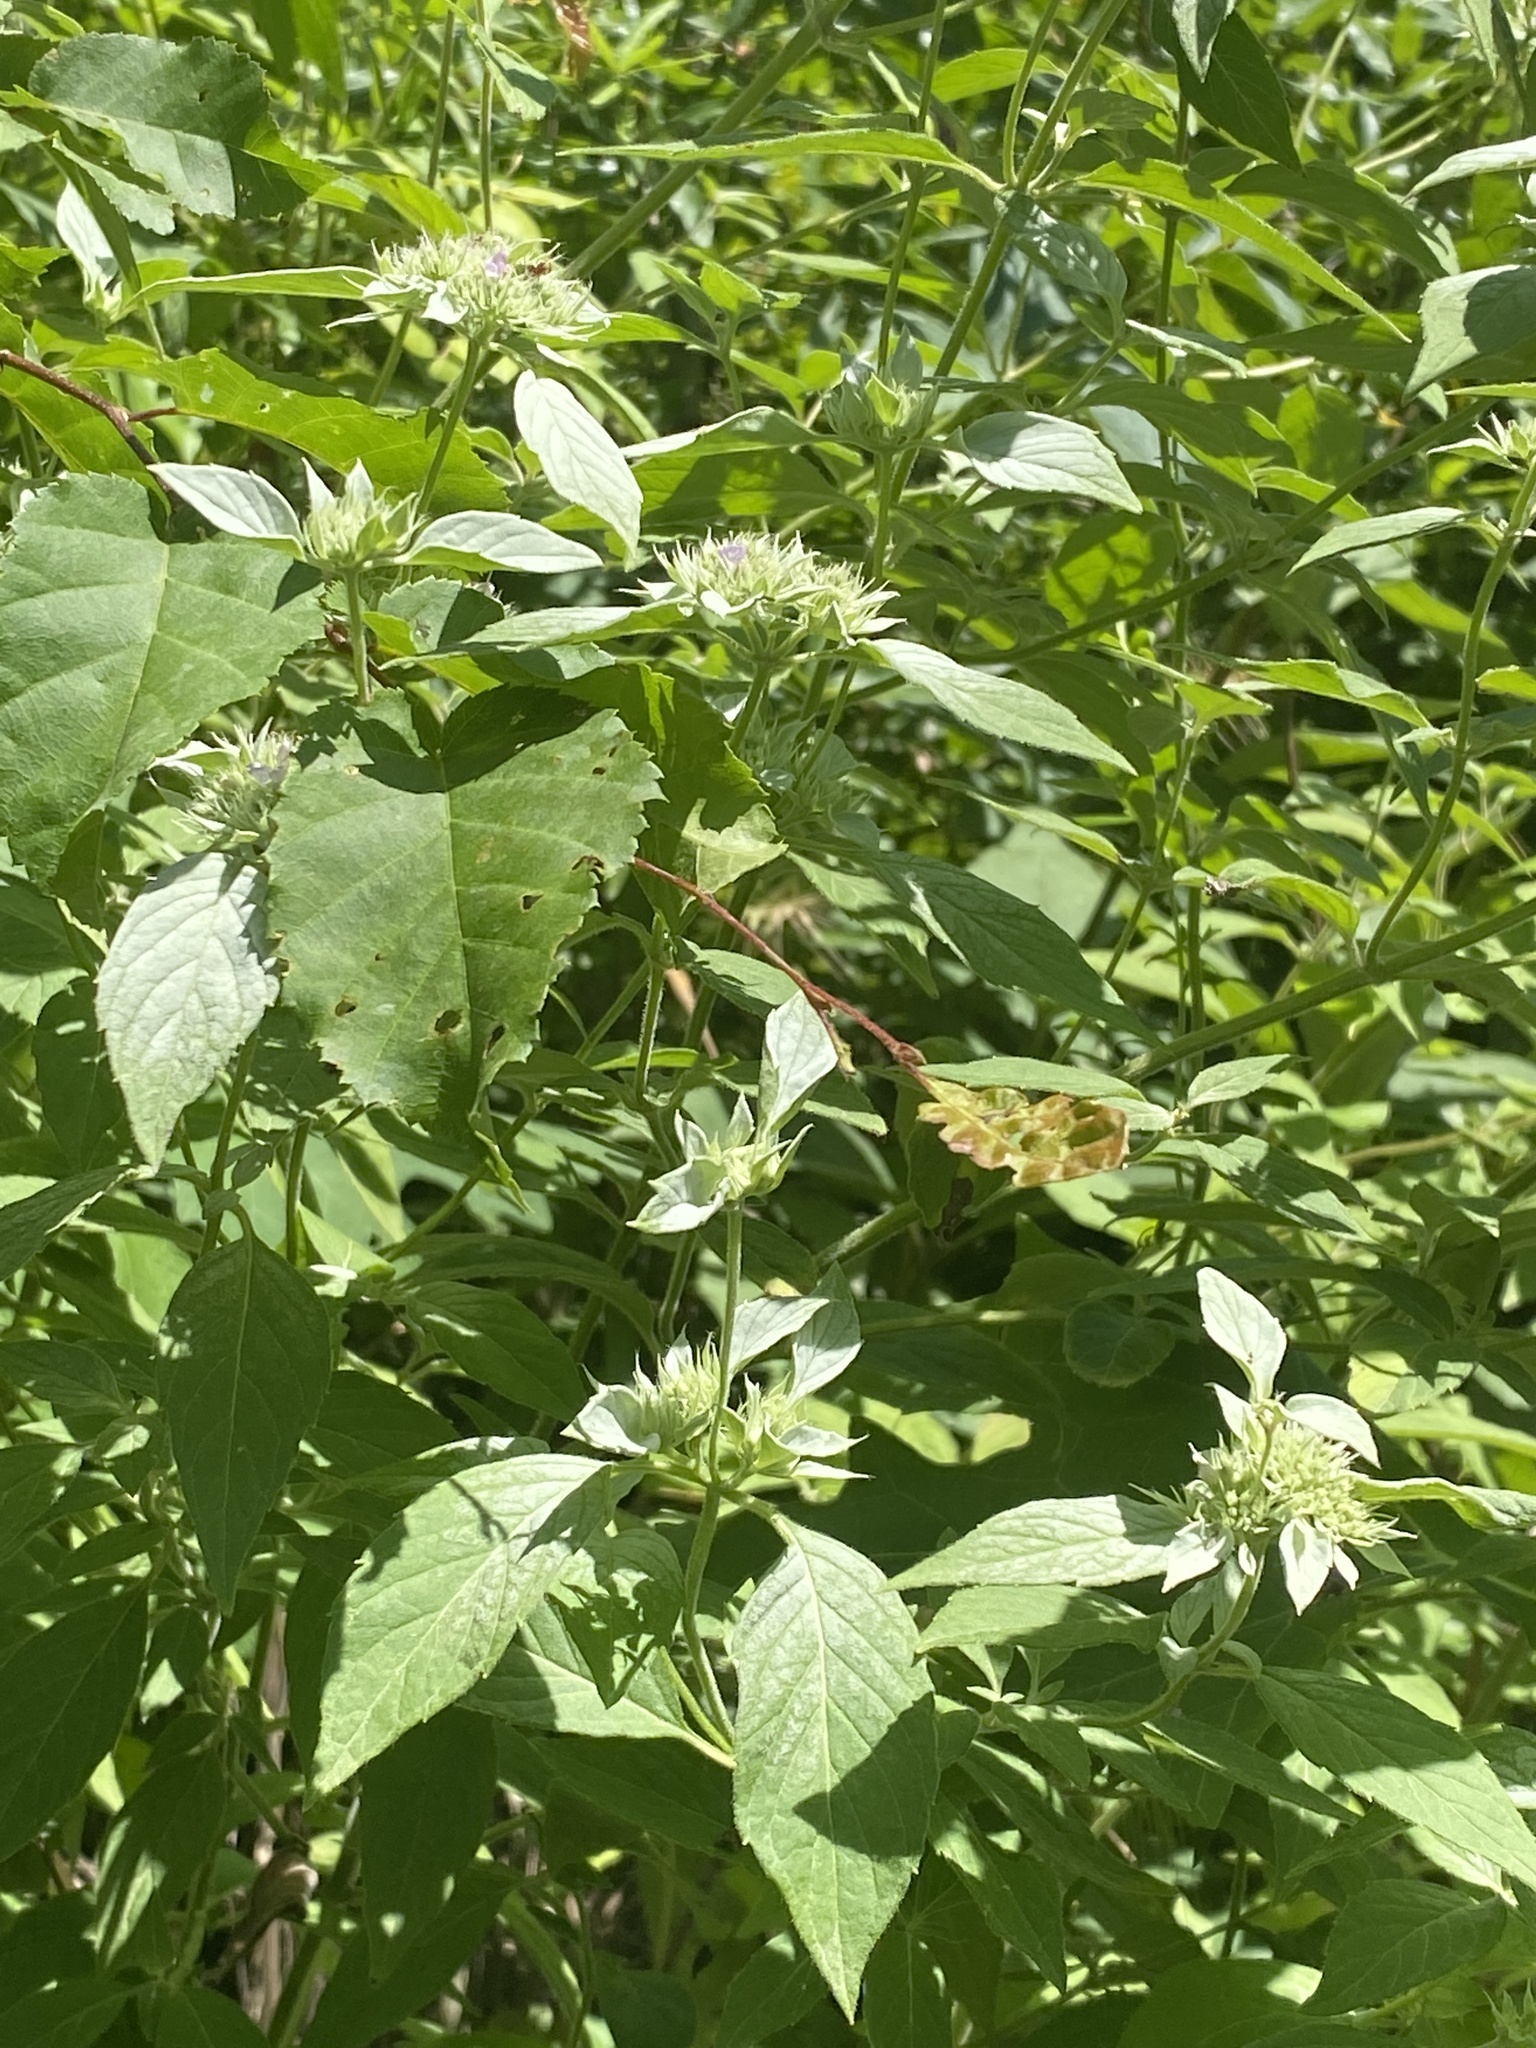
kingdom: Plantae
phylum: Tracheophyta
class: Magnoliopsida
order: Lamiales
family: Lamiaceae
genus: Pycnanthemum
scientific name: Pycnanthemum incanum
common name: Hoary mountain-mint
